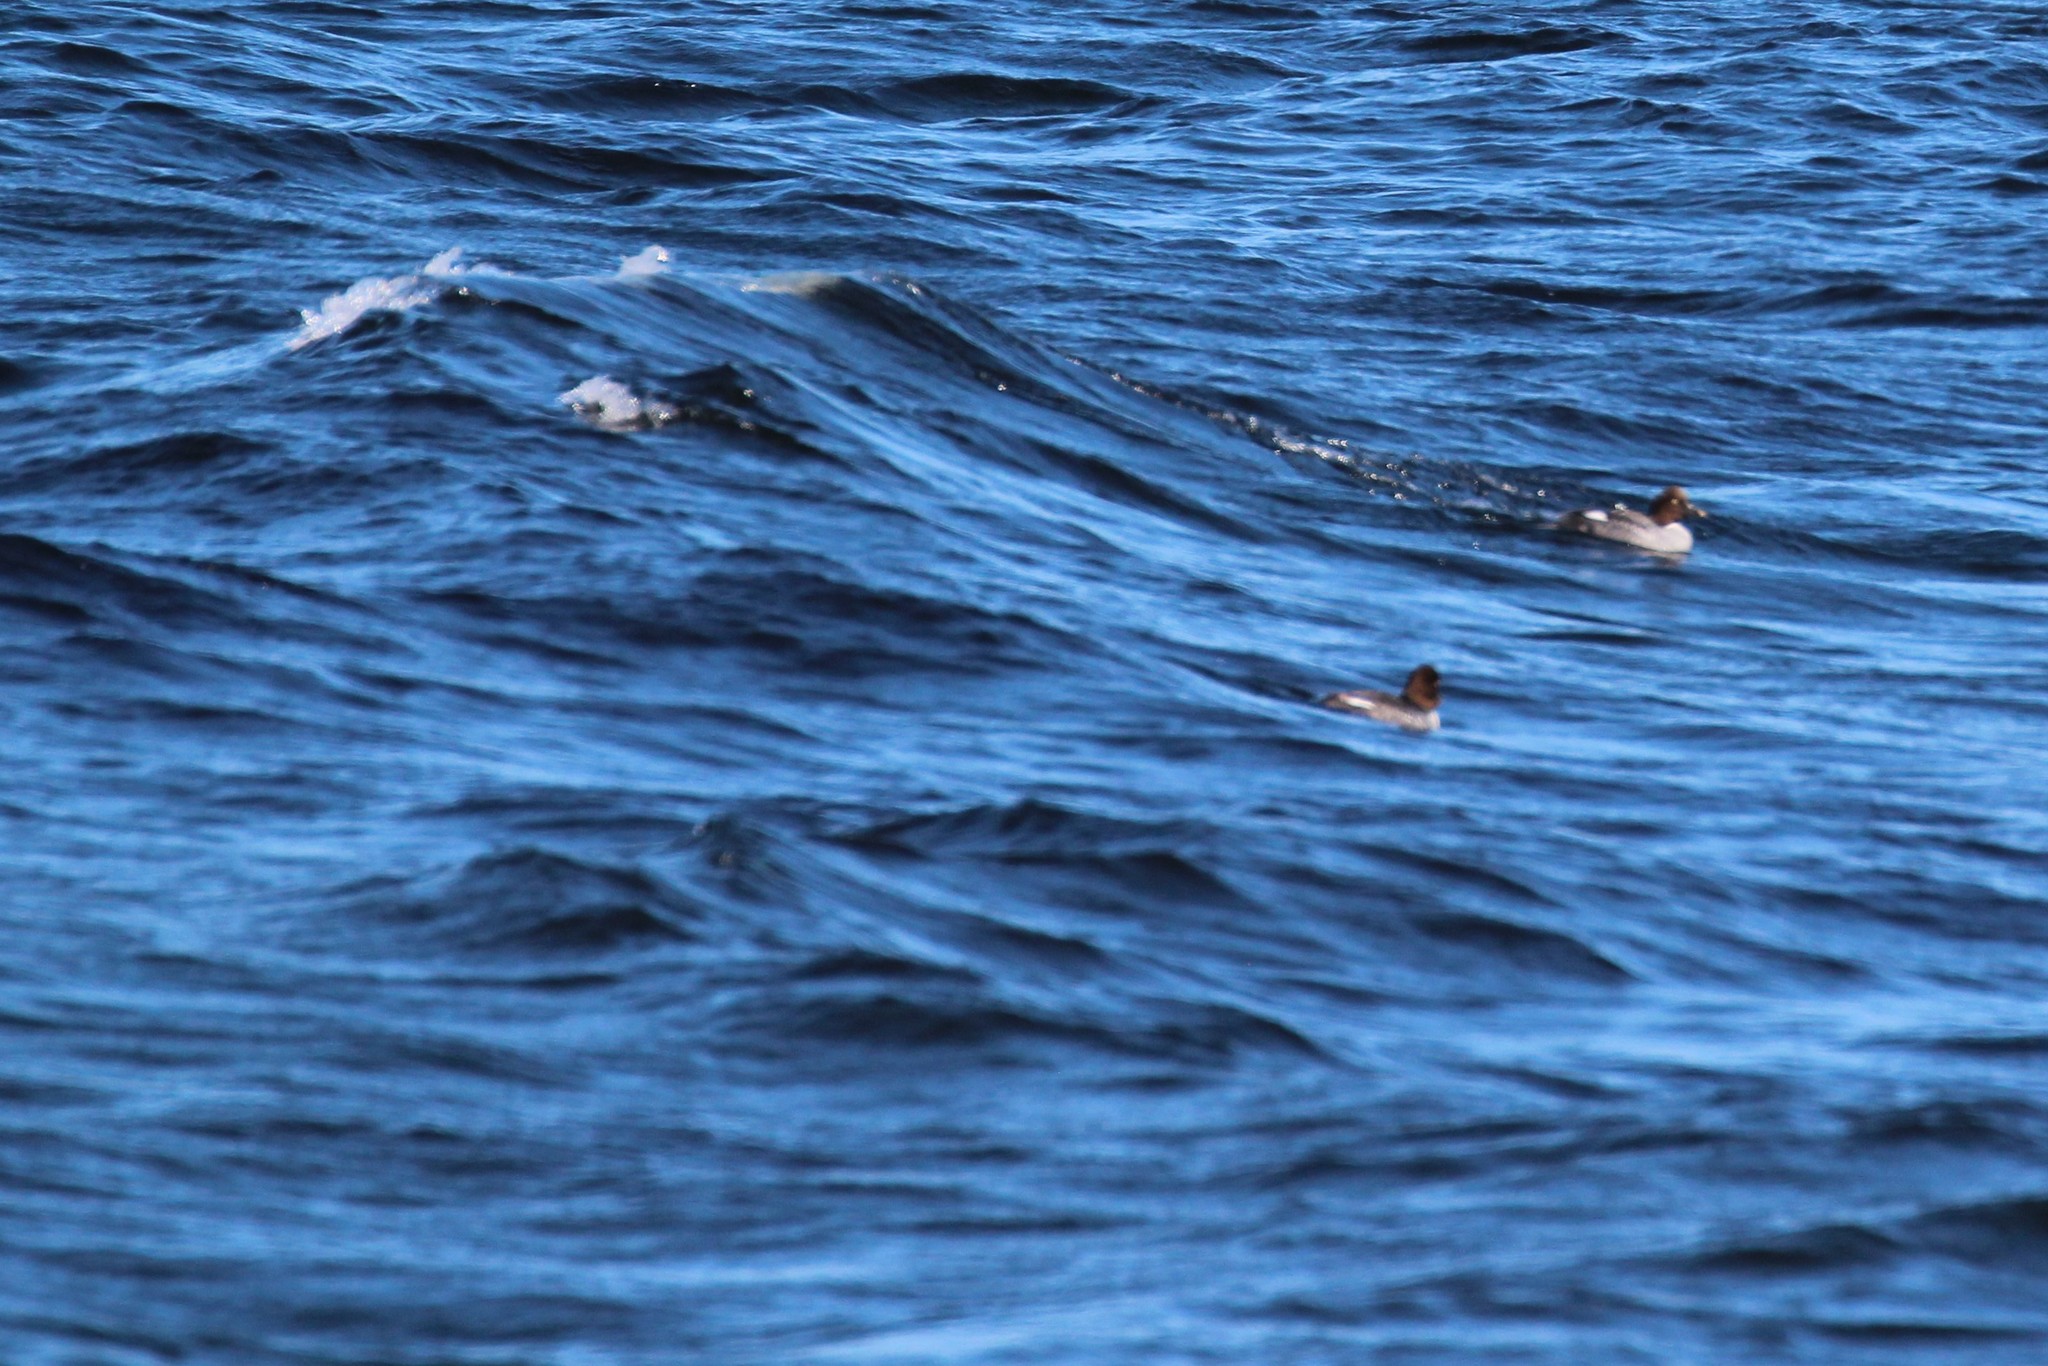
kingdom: Animalia
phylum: Chordata
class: Aves
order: Anseriformes
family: Anatidae
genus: Bucephala
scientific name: Bucephala clangula
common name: Common goldeneye
